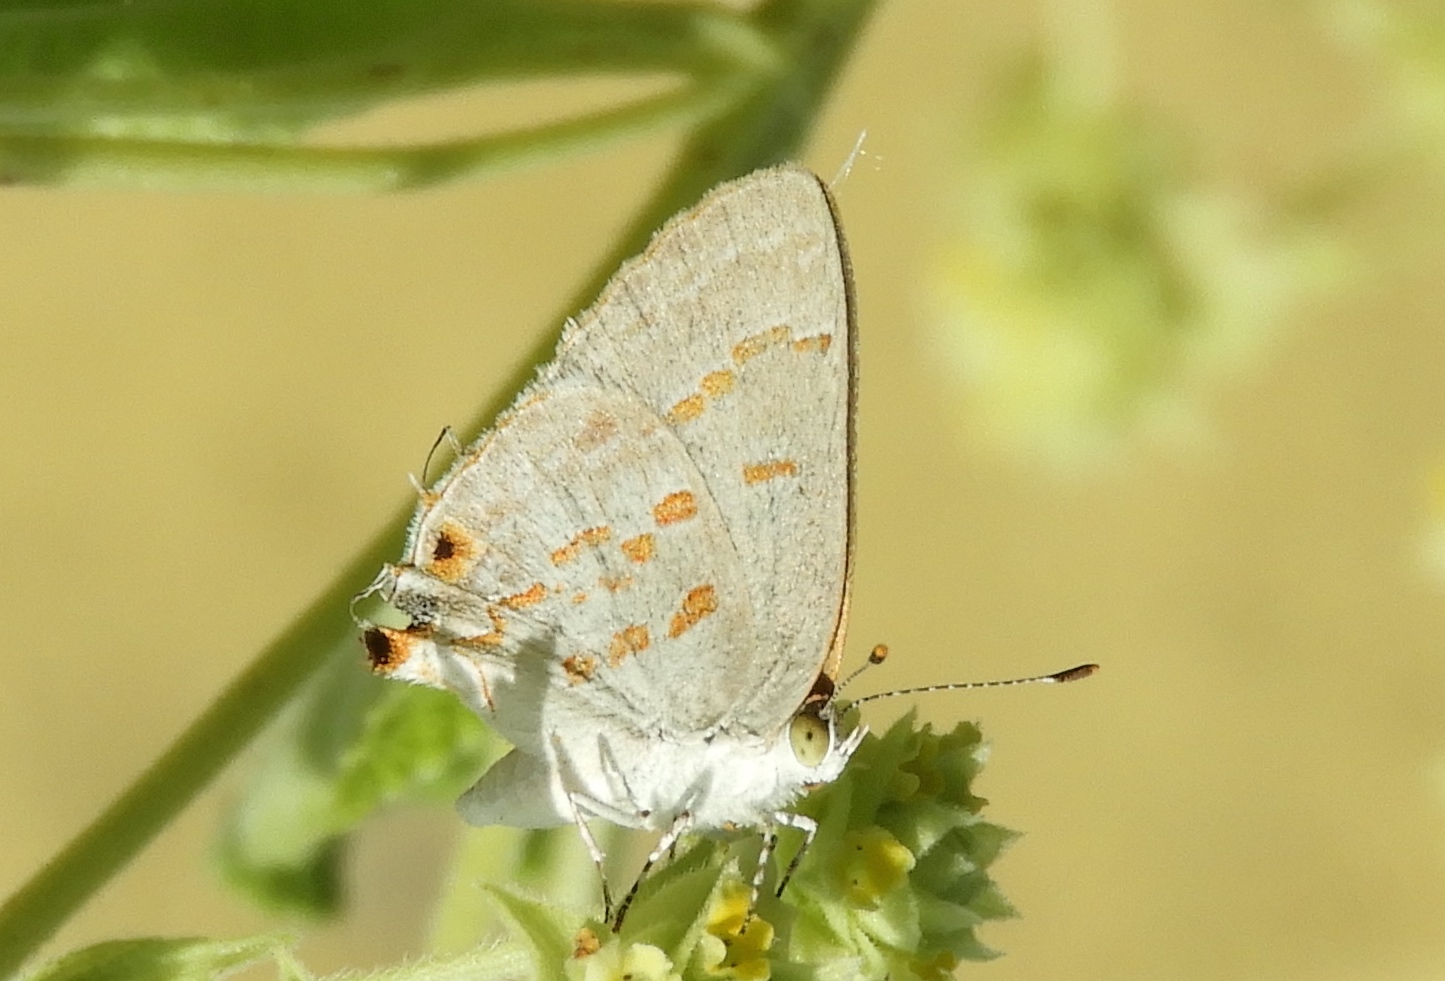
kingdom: Animalia
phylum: Arthropoda
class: Insecta
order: Lepidoptera
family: Lycaenidae
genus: Ministrymon
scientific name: Ministrymon clytie
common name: Clytie ministreak
